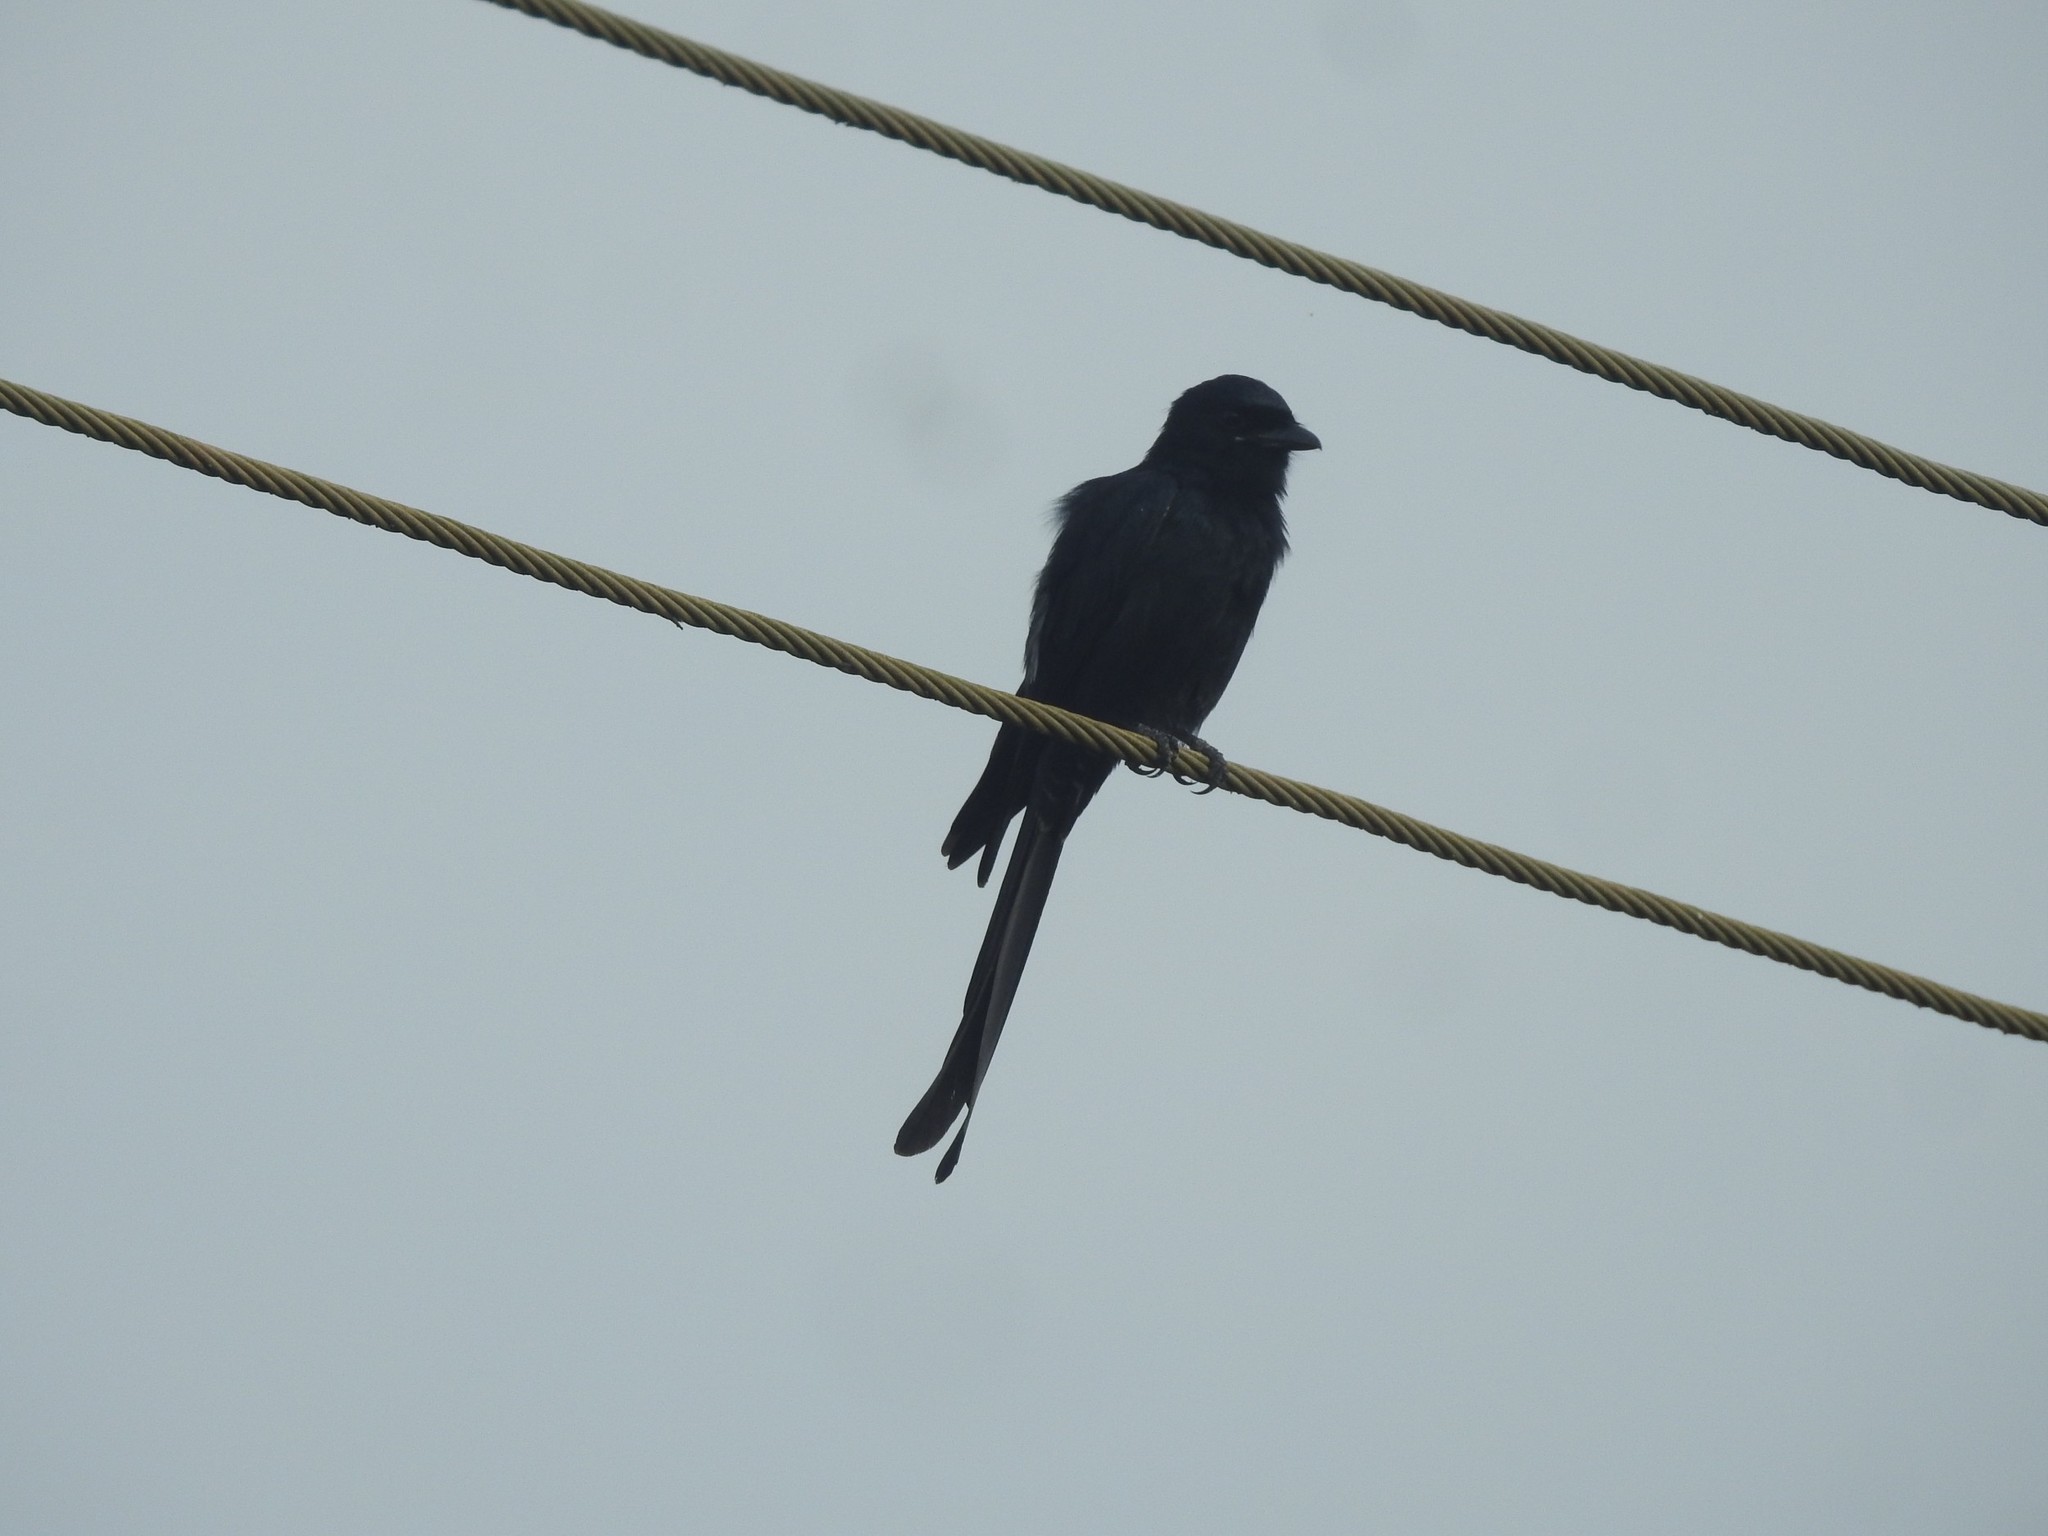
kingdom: Animalia
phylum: Chordata
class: Aves
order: Passeriformes
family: Dicruridae
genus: Dicrurus
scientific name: Dicrurus macrocercus
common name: Black drongo
